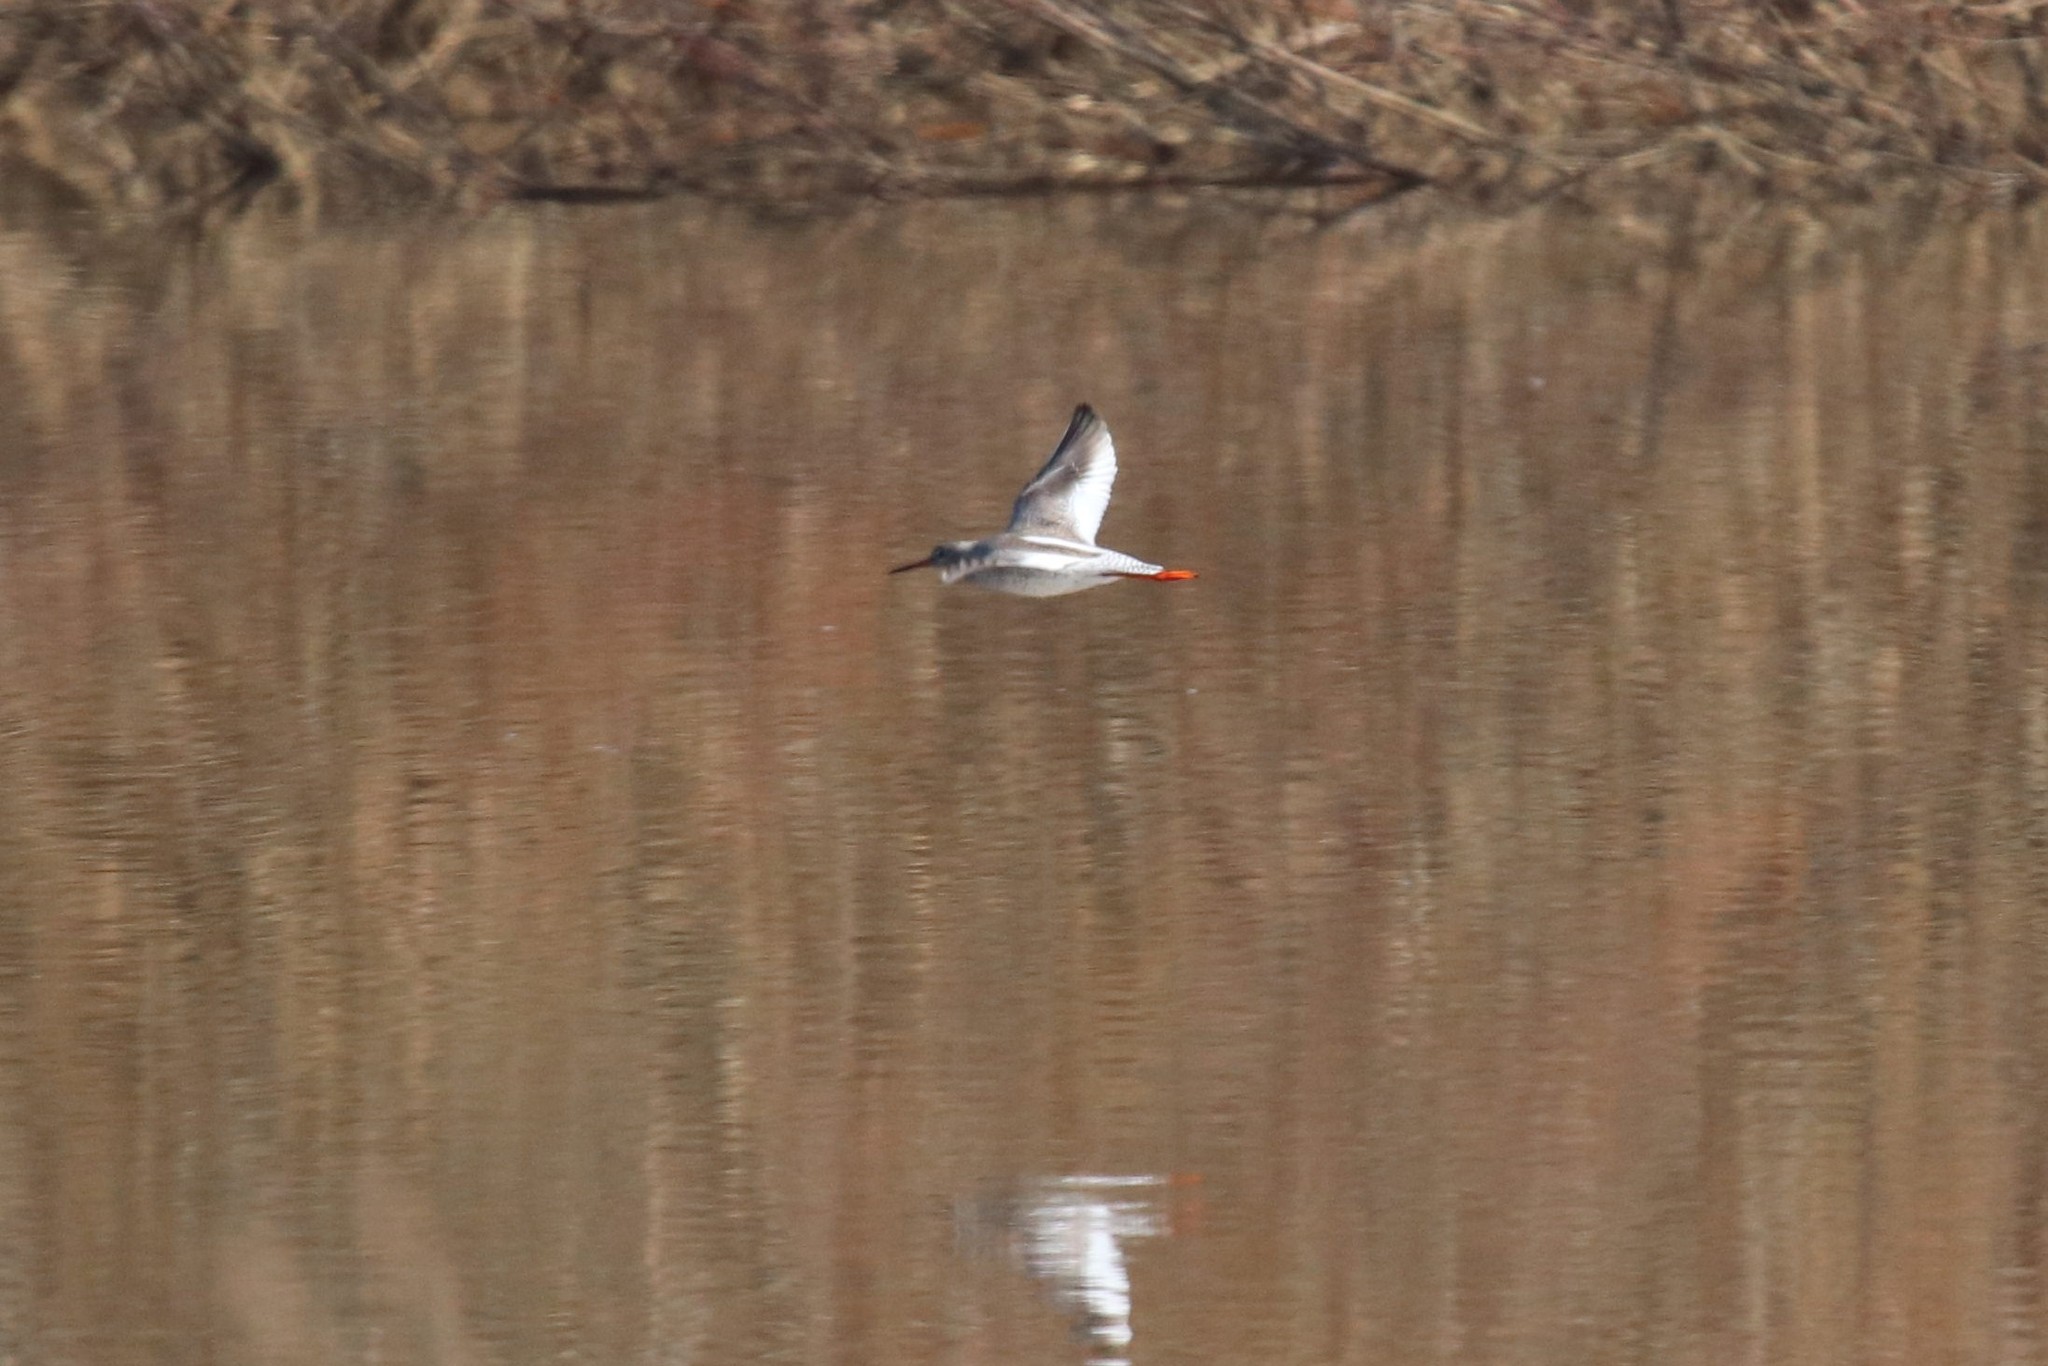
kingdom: Animalia
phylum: Chordata
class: Aves
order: Charadriiformes
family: Scolopacidae
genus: Tringa
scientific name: Tringa totanus
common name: Common redshank
